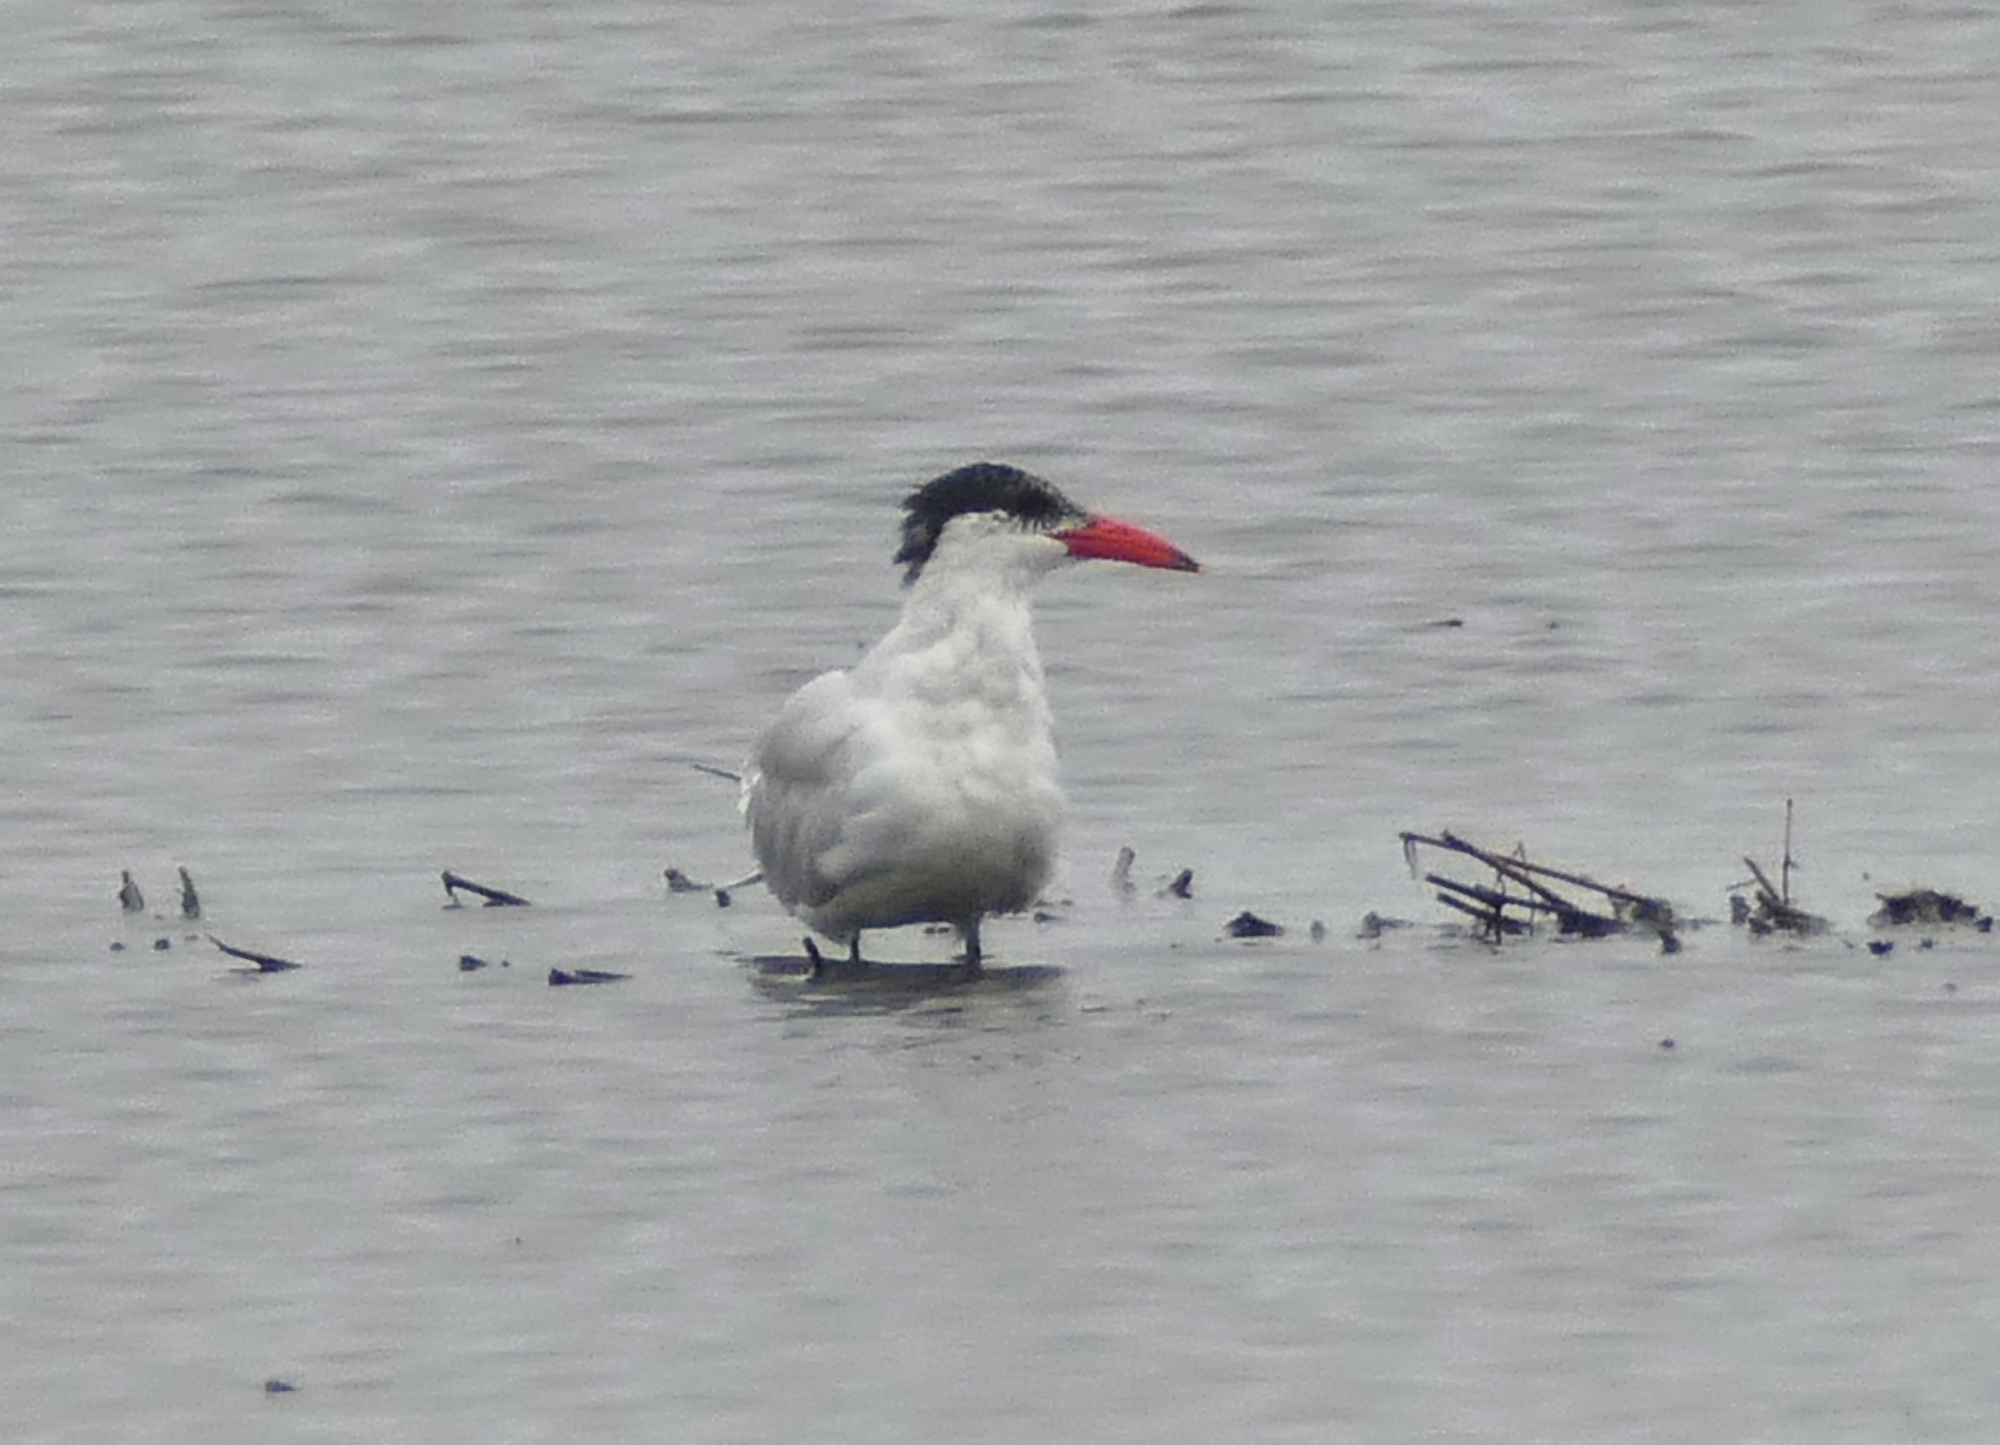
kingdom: Animalia
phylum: Chordata
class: Aves
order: Charadriiformes
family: Laridae
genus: Hydroprogne
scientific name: Hydroprogne caspia
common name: Caspian tern
